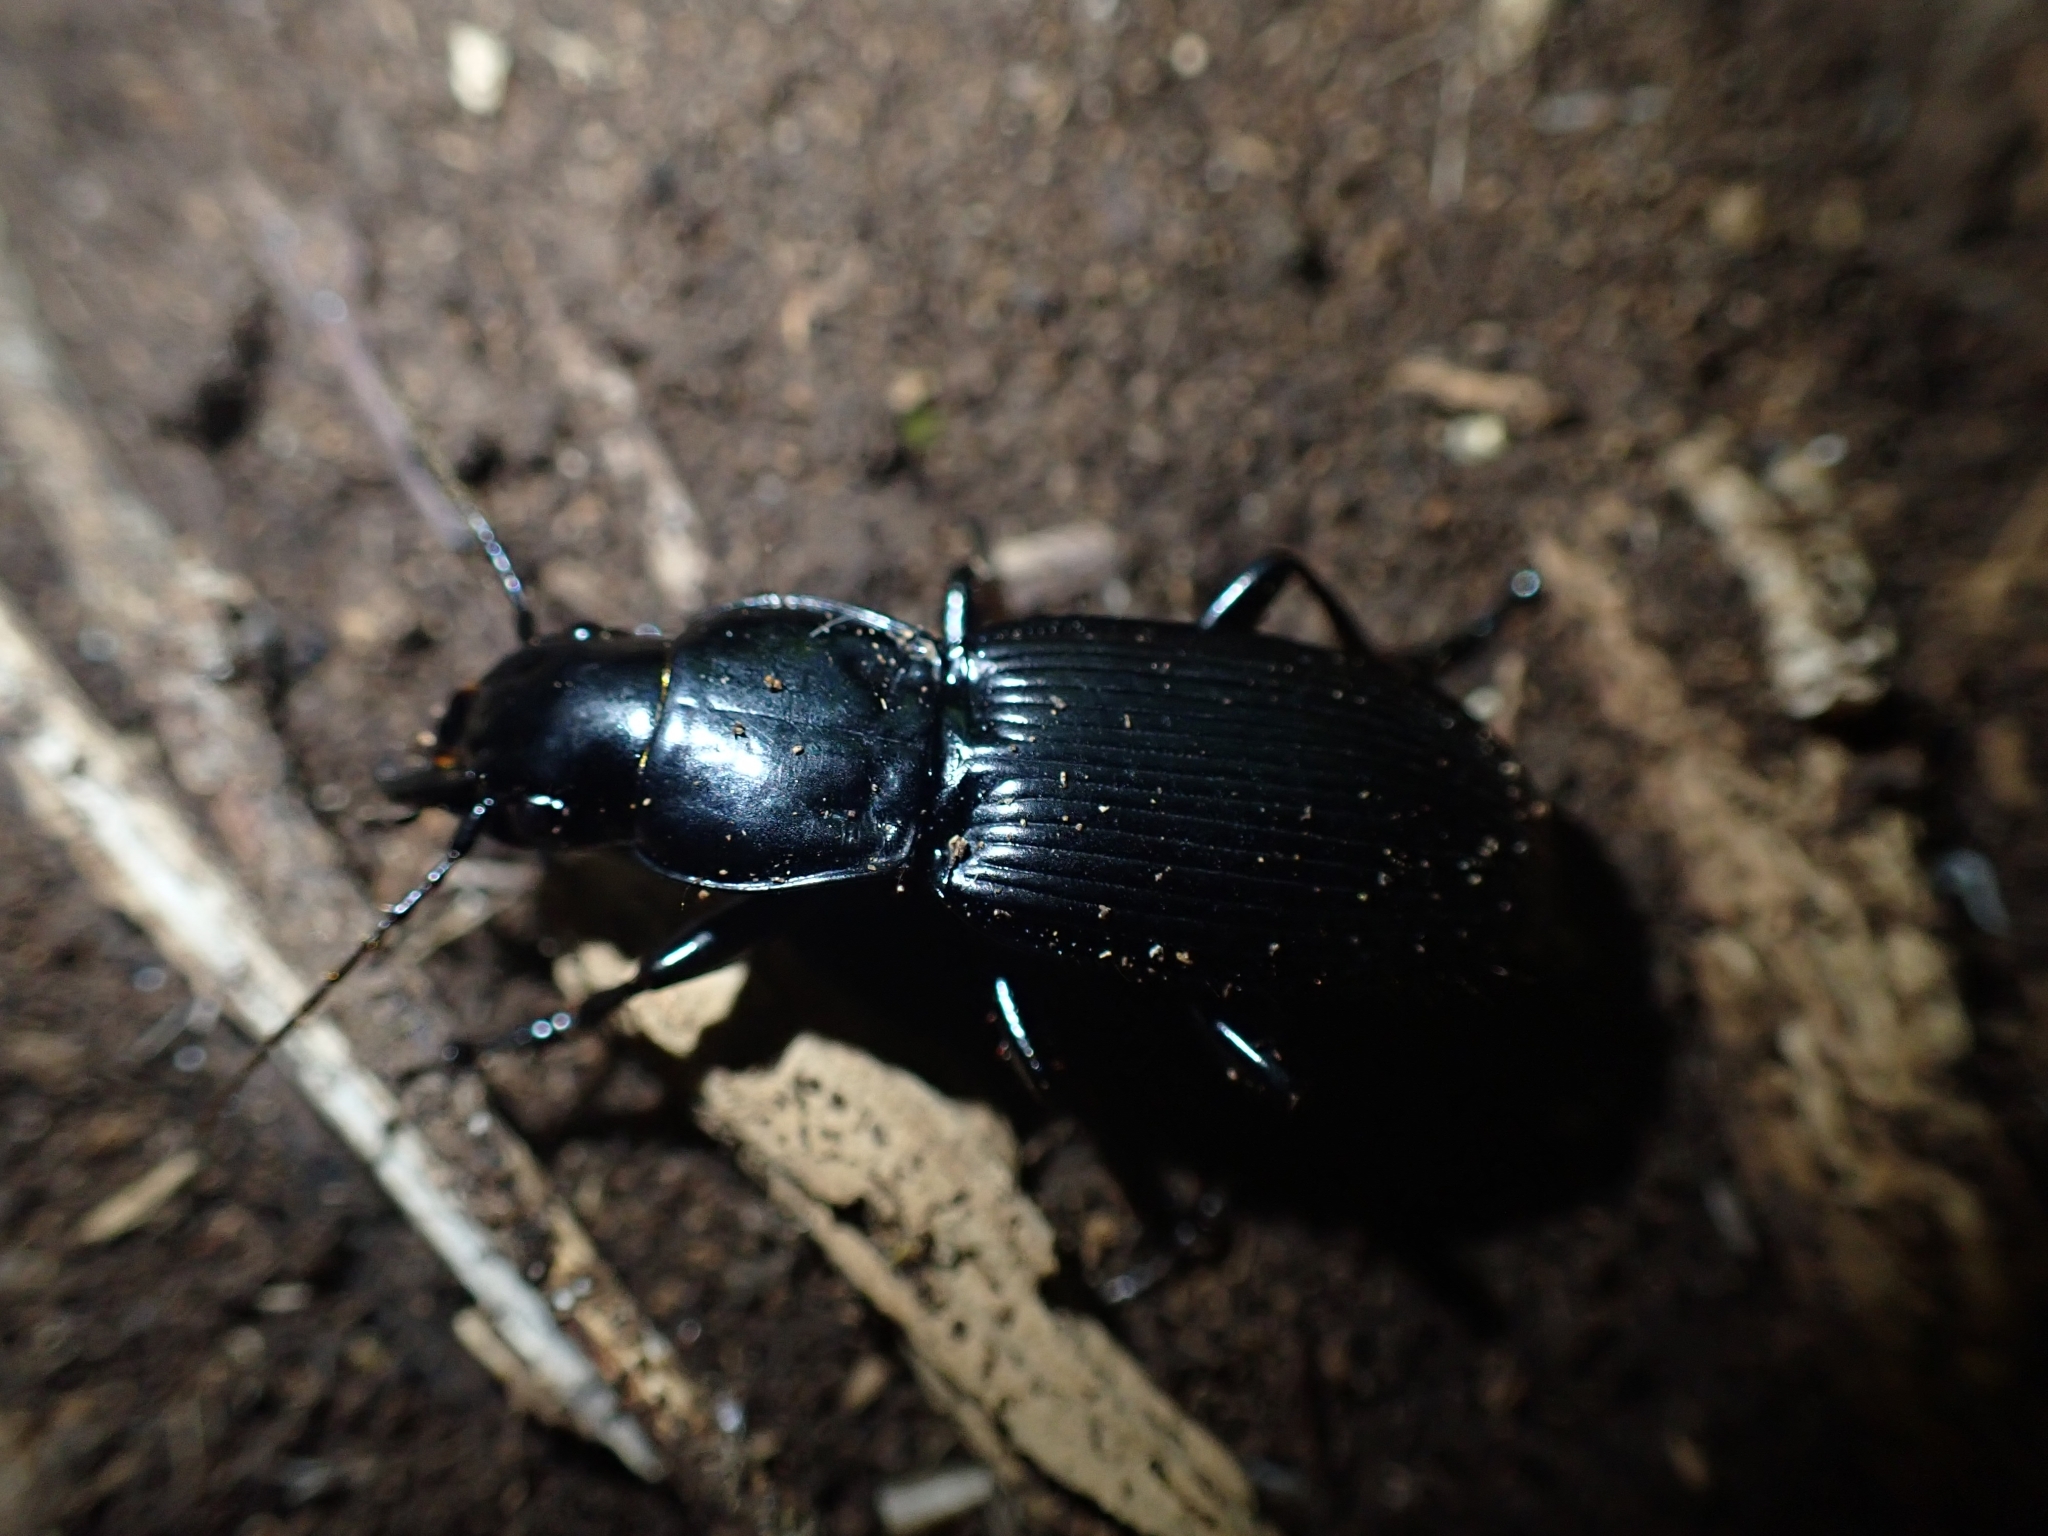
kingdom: Animalia
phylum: Arthropoda
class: Insecta
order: Coleoptera
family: Carabidae
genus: Plocamostethus
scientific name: Plocamostethus planiusculus
